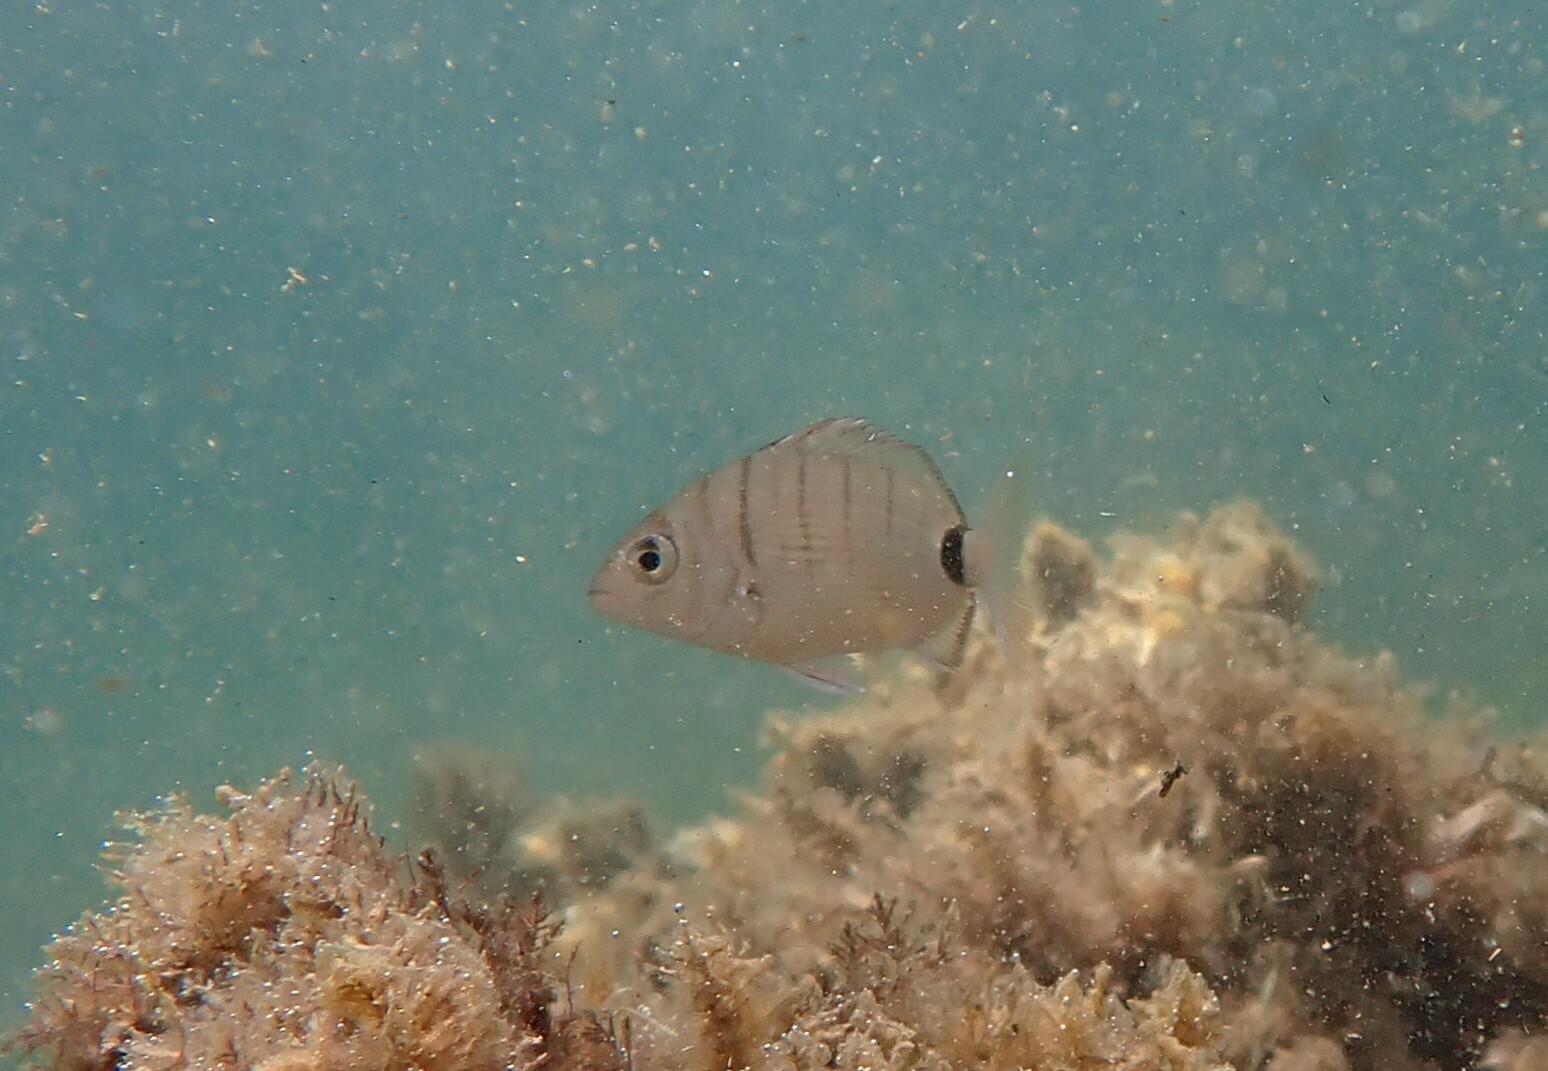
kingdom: Animalia
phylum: Chordata
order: Perciformes
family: Sparidae
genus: Diplodus
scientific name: Diplodus sargus
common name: White seabream
